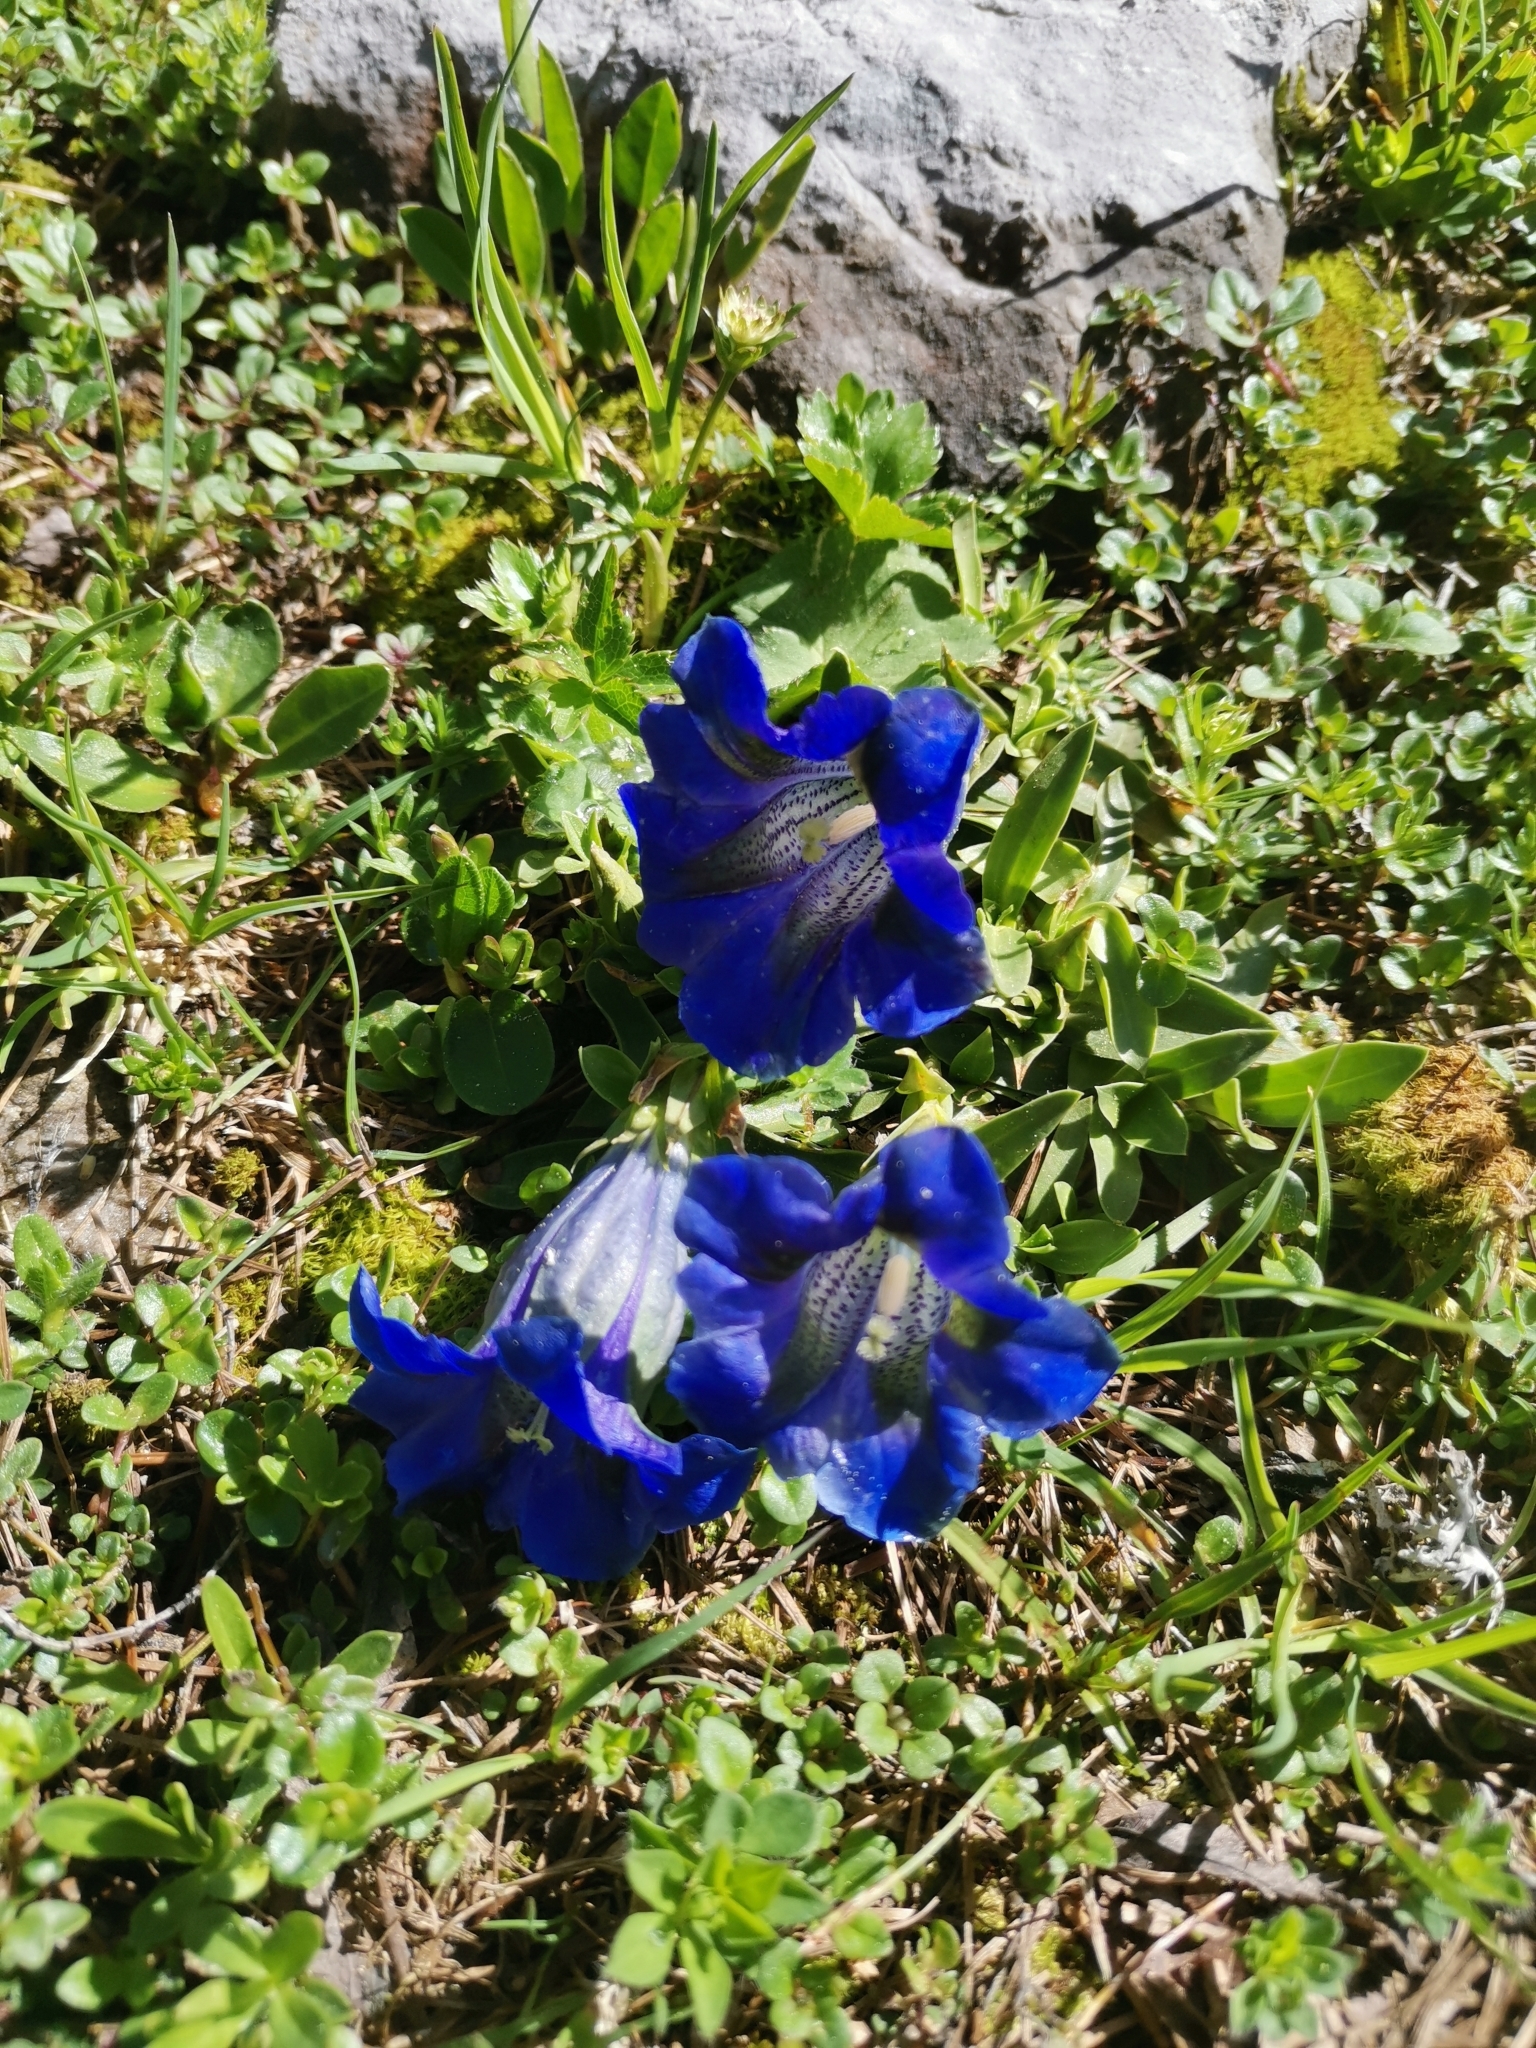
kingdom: Plantae
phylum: Tracheophyta
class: Magnoliopsida
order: Gentianales
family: Gentianaceae
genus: Gentiana
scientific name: Gentiana clusii
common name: Trumpet gentian
